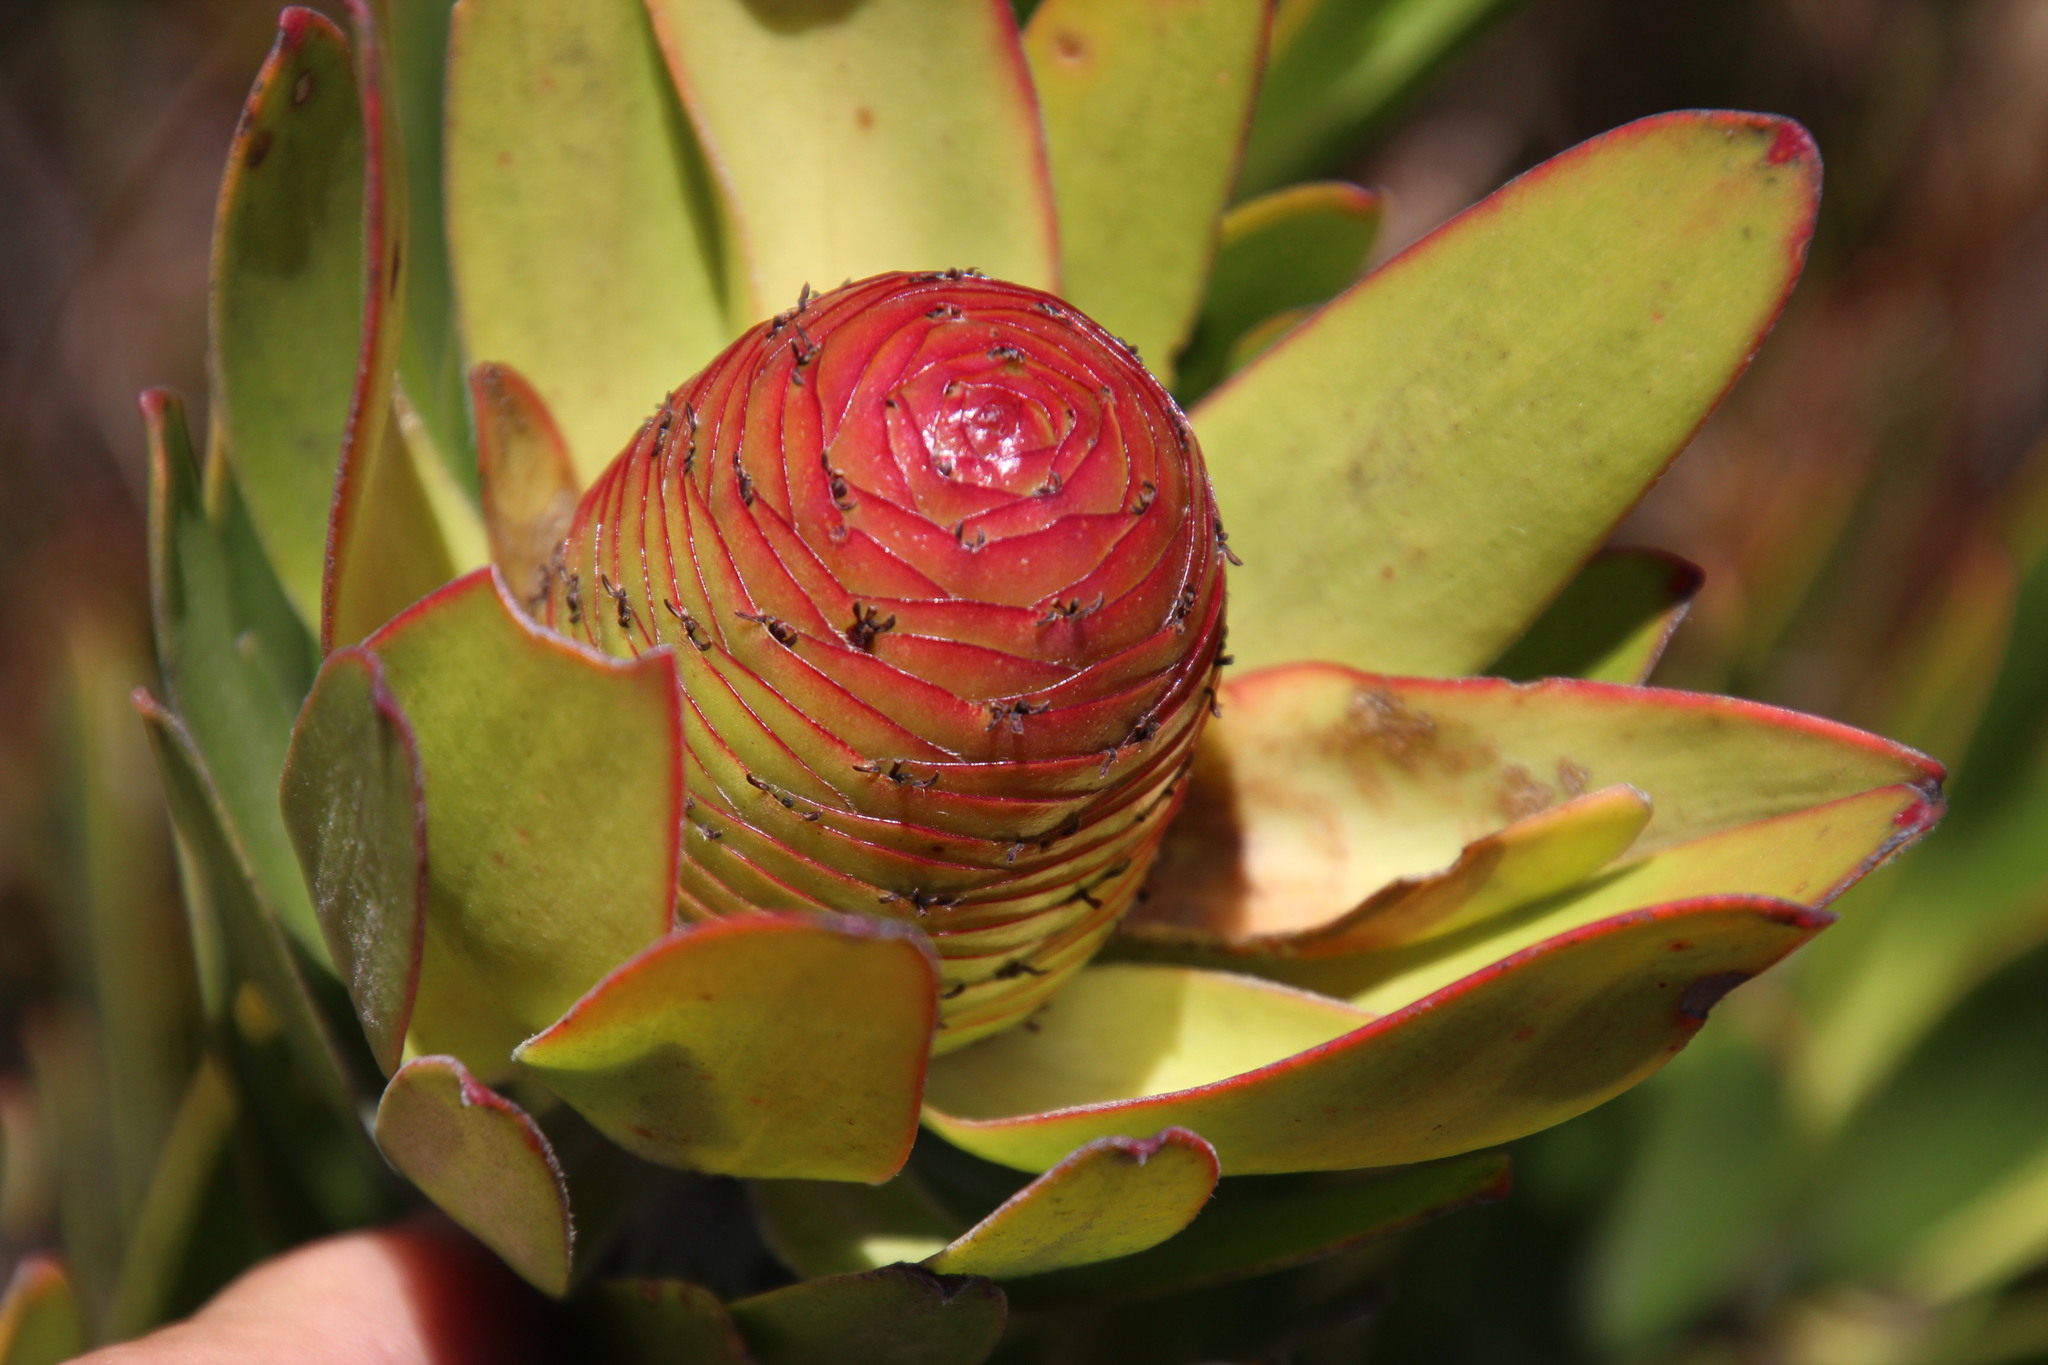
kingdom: Plantae
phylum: Tracheophyta
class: Magnoliopsida
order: Proteales
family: Proteaceae
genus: Leucadendron
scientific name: Leucadendron spissifolium
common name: Spear-leaf conebush
